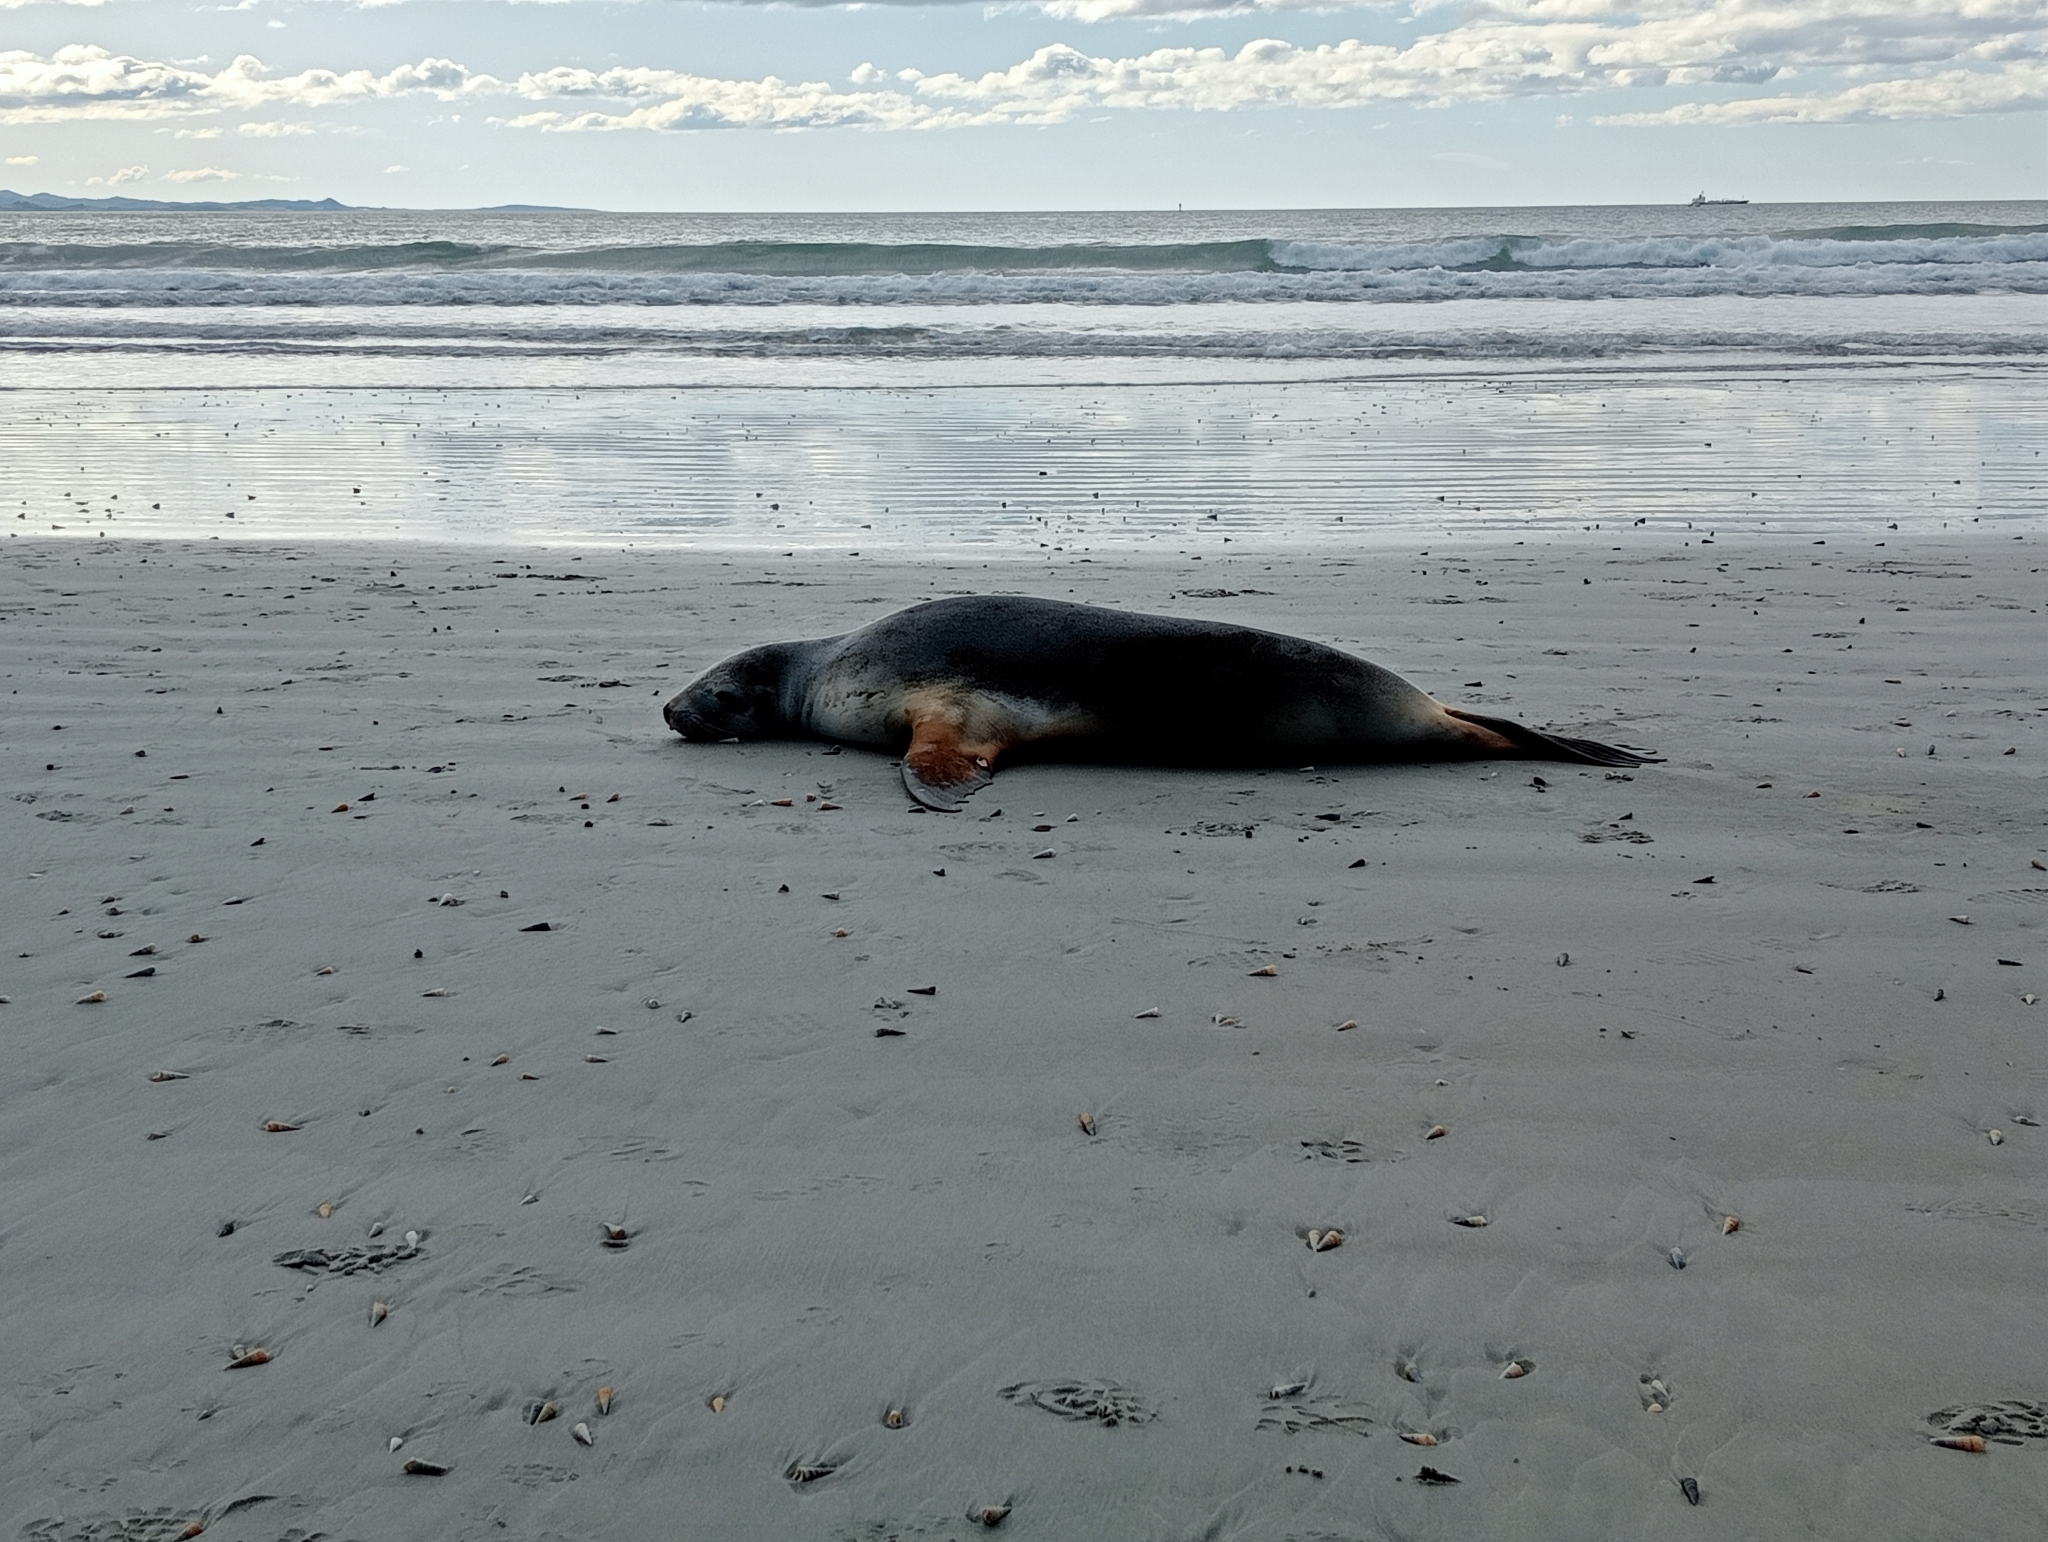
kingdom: Animalia
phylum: Chordata
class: Mammalia
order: Carnivora
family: Otariidae
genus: Phocarctos
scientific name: Phocarctos hookeri
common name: New zealand sea lion
